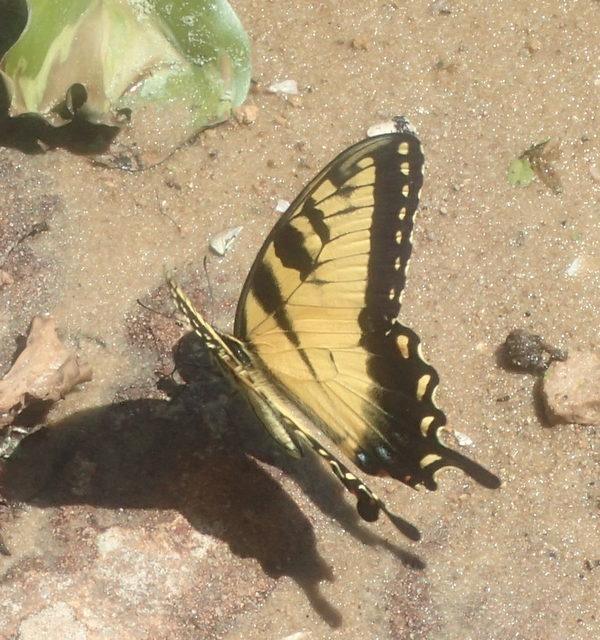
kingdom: Animalia
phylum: Arthropoda
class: Insecta
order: Lepidoptera
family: Papilionidae
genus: Papilio
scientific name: Papilio glaucus
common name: Tiger swallowtail
